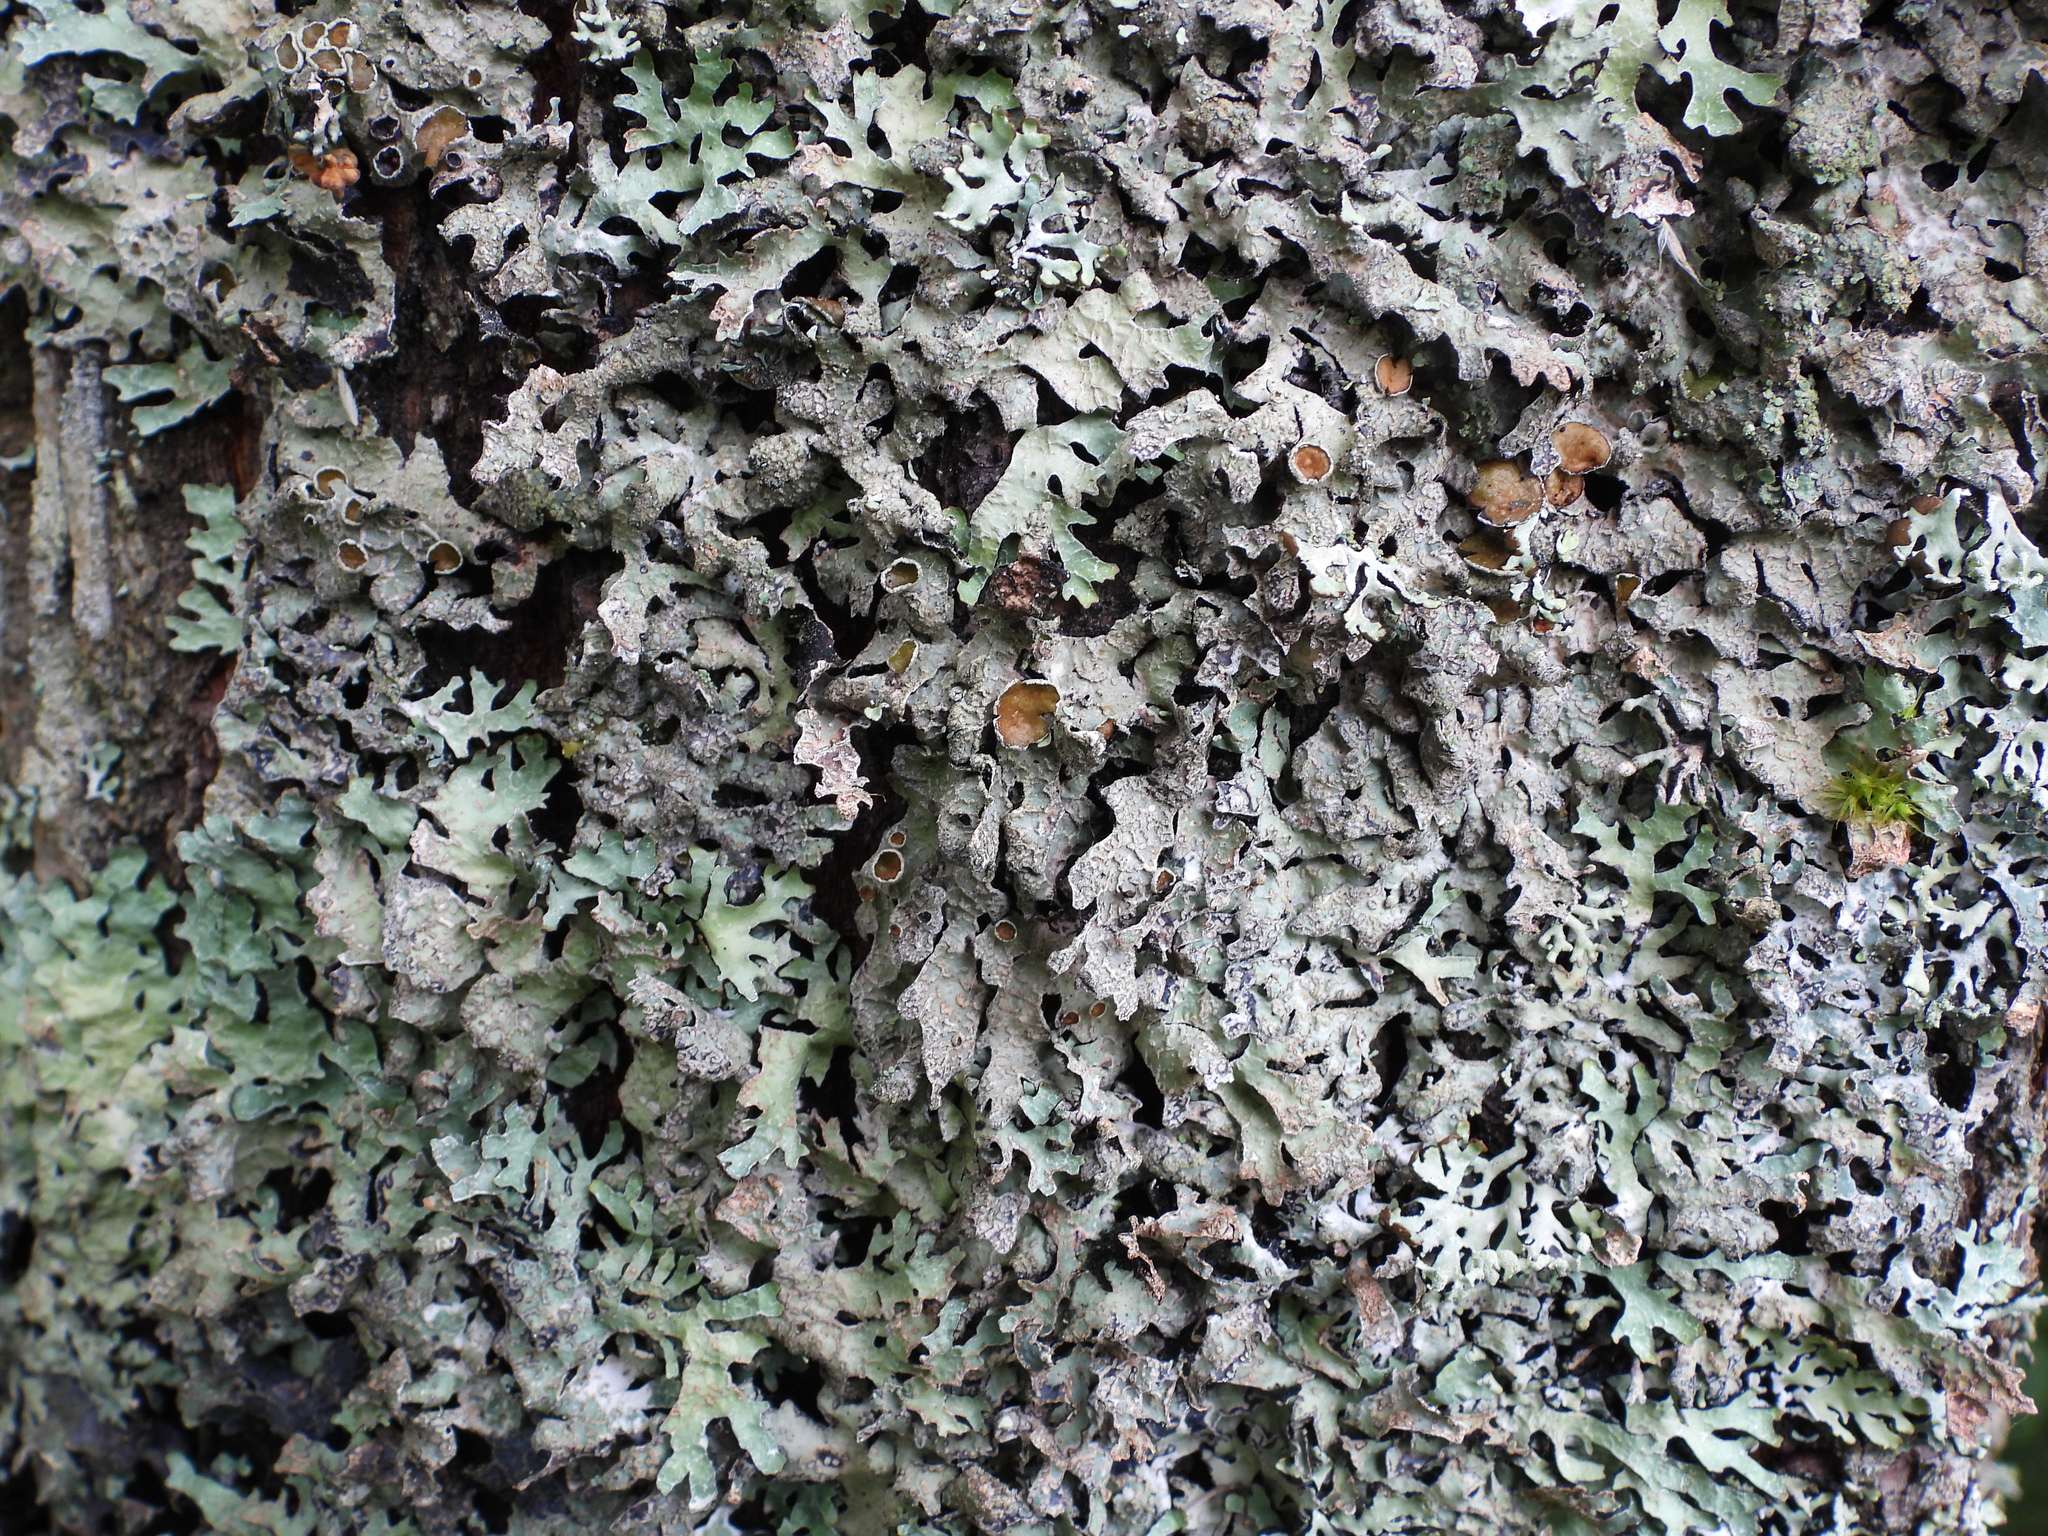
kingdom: Fungi
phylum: Ascomycota
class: Lecanoromycetes
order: Lecanorales
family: Parmeliaceae
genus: Parmelia
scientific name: Parmelia sulcata
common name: Netted shield lichen
